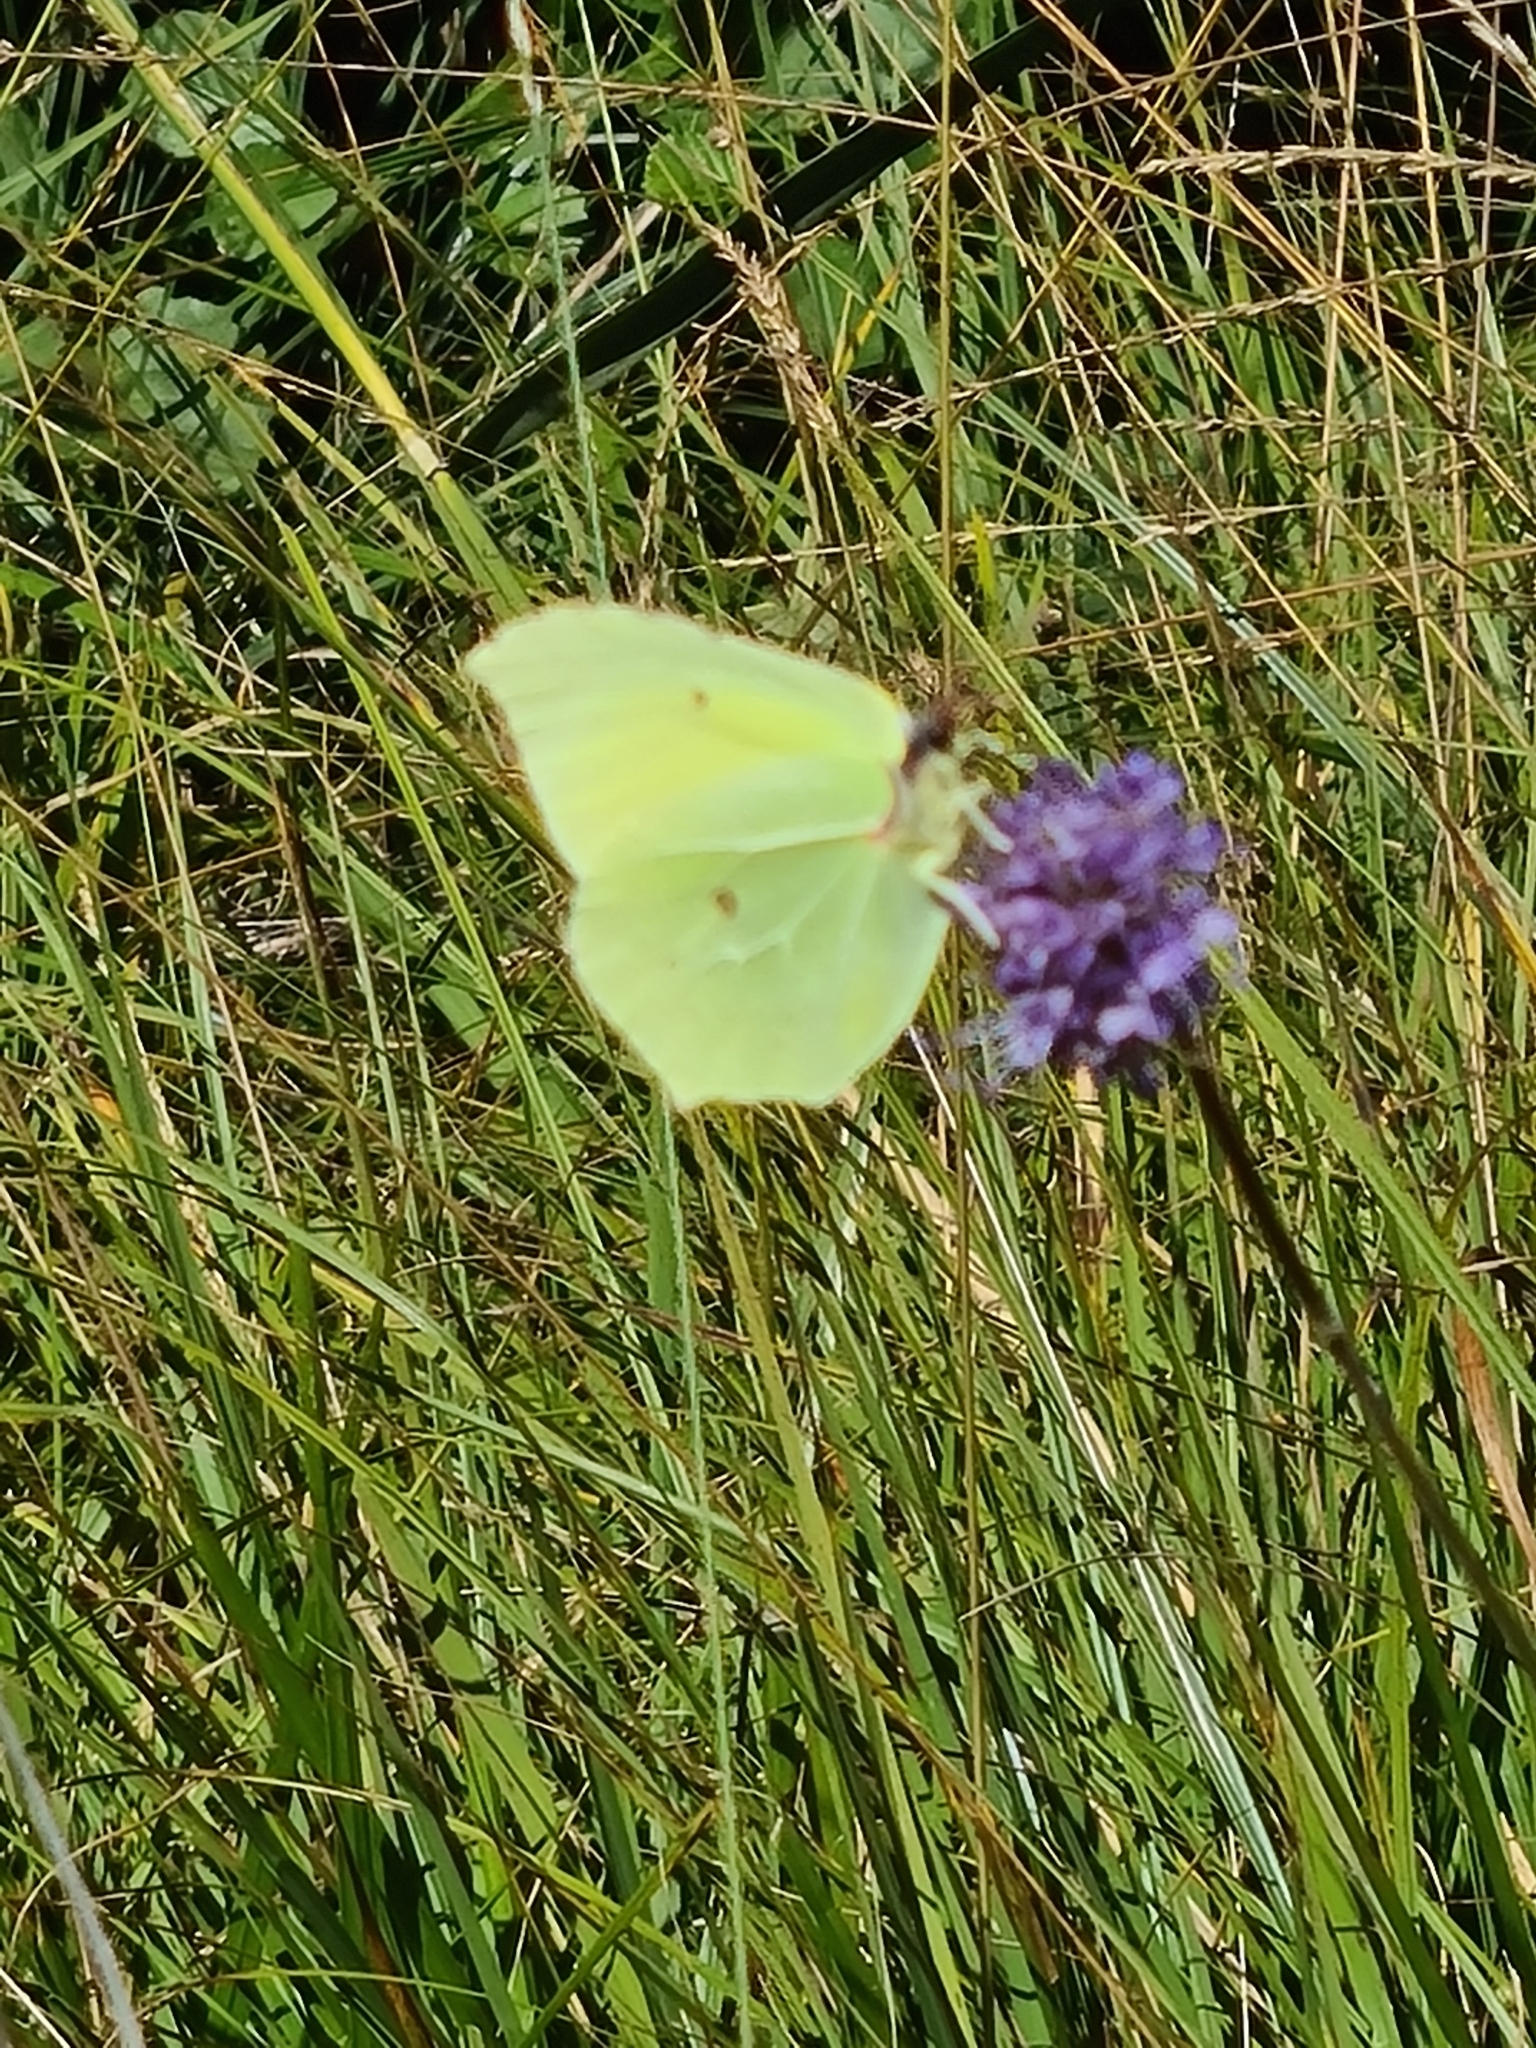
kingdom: Animalia
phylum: Arthropoda
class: Insecta
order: Lepidoptera
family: Pieridae
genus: Gonepteryx
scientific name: Gonepteryx rhamni
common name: Brimstone
